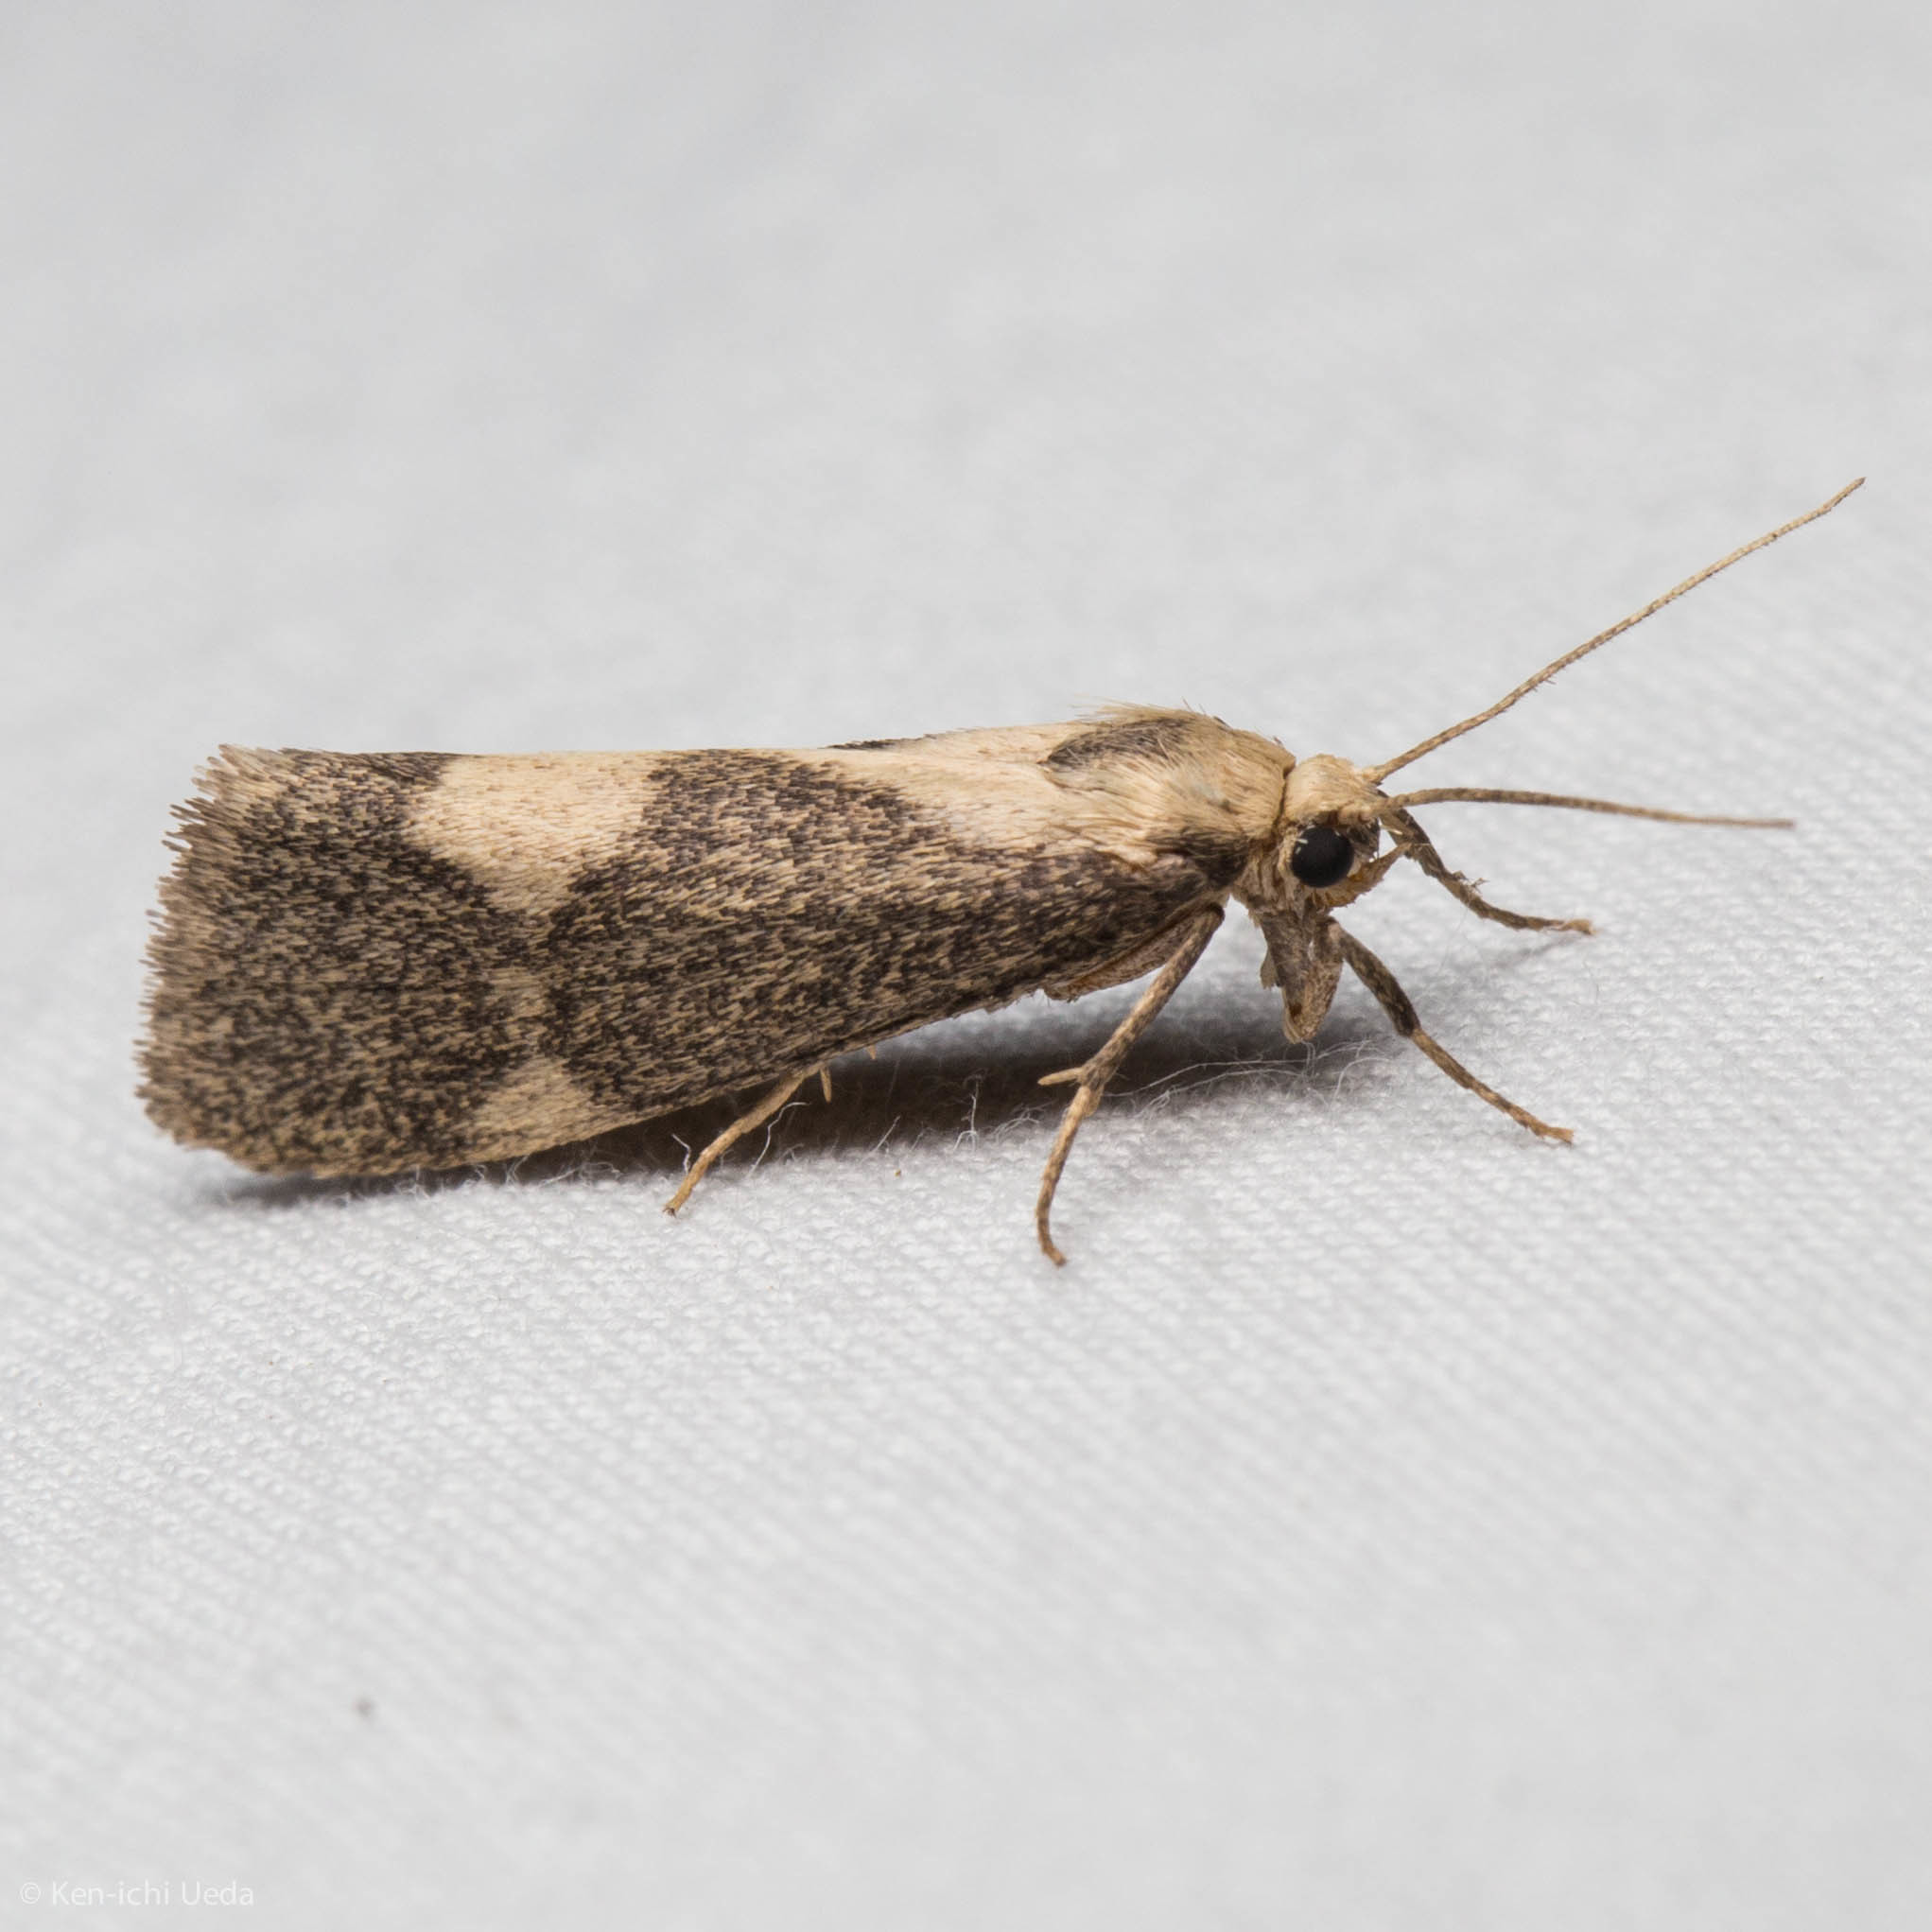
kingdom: Animalia
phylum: Arthropoda
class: Insecta
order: Lepidoptera
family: Erebidae
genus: Cisthene
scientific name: Cisthene faustinula
